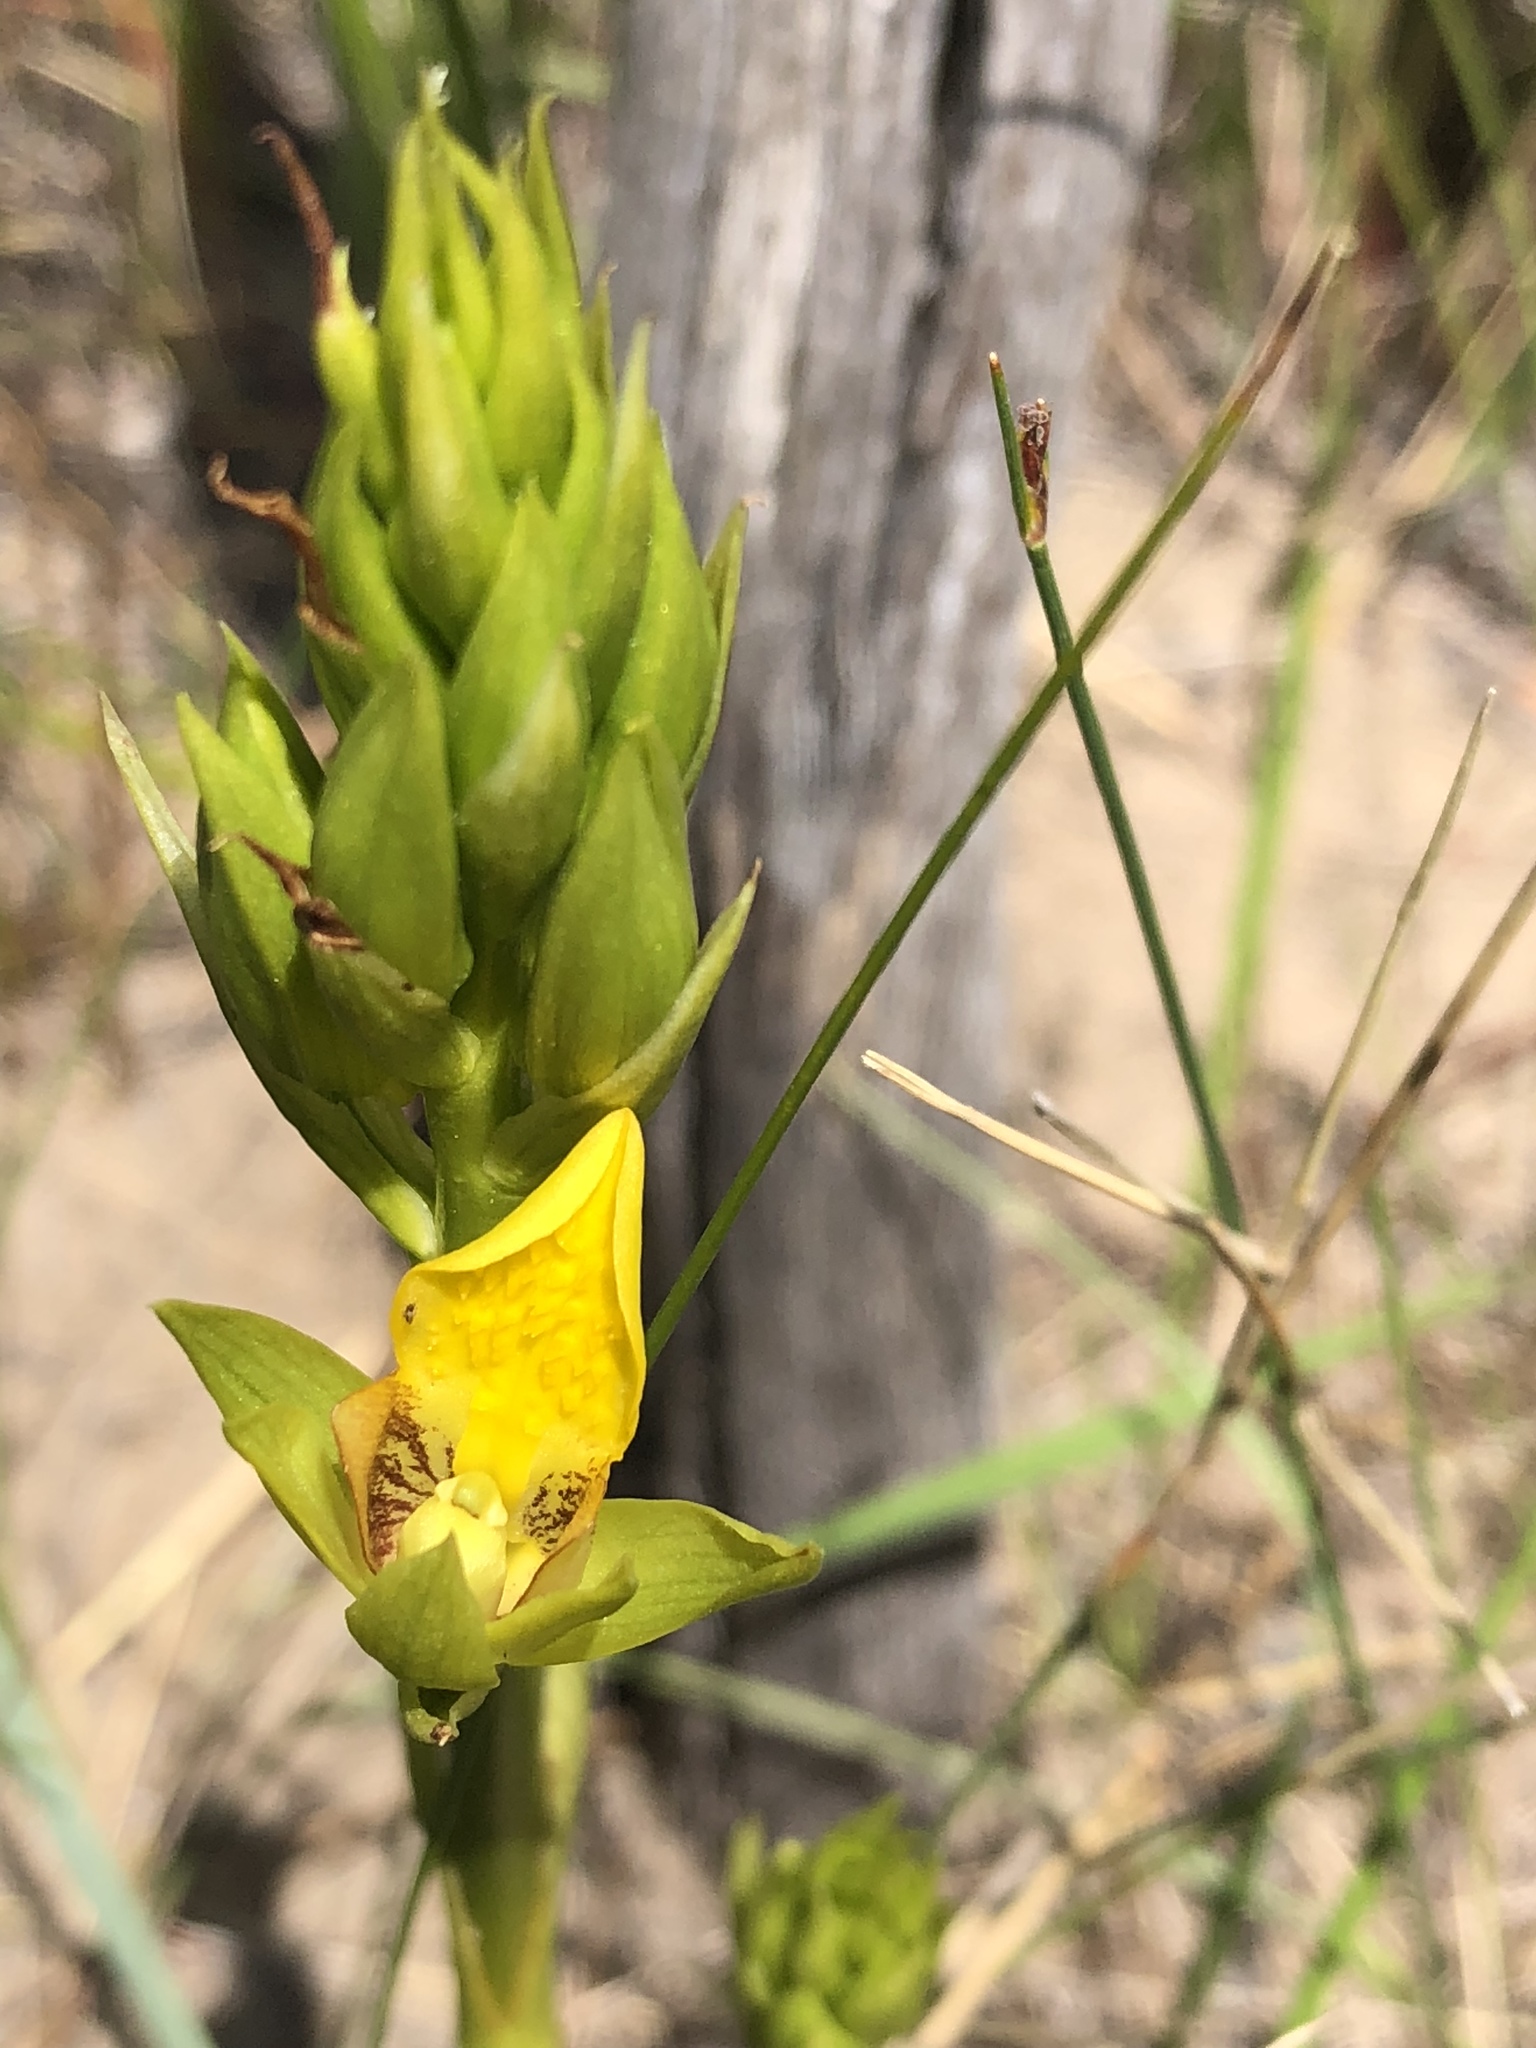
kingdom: Plantae
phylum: Tracheophyta
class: Liliopsida
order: Asparagales
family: Orchidaceae
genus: Eulophia
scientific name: Eulophia litoralis
